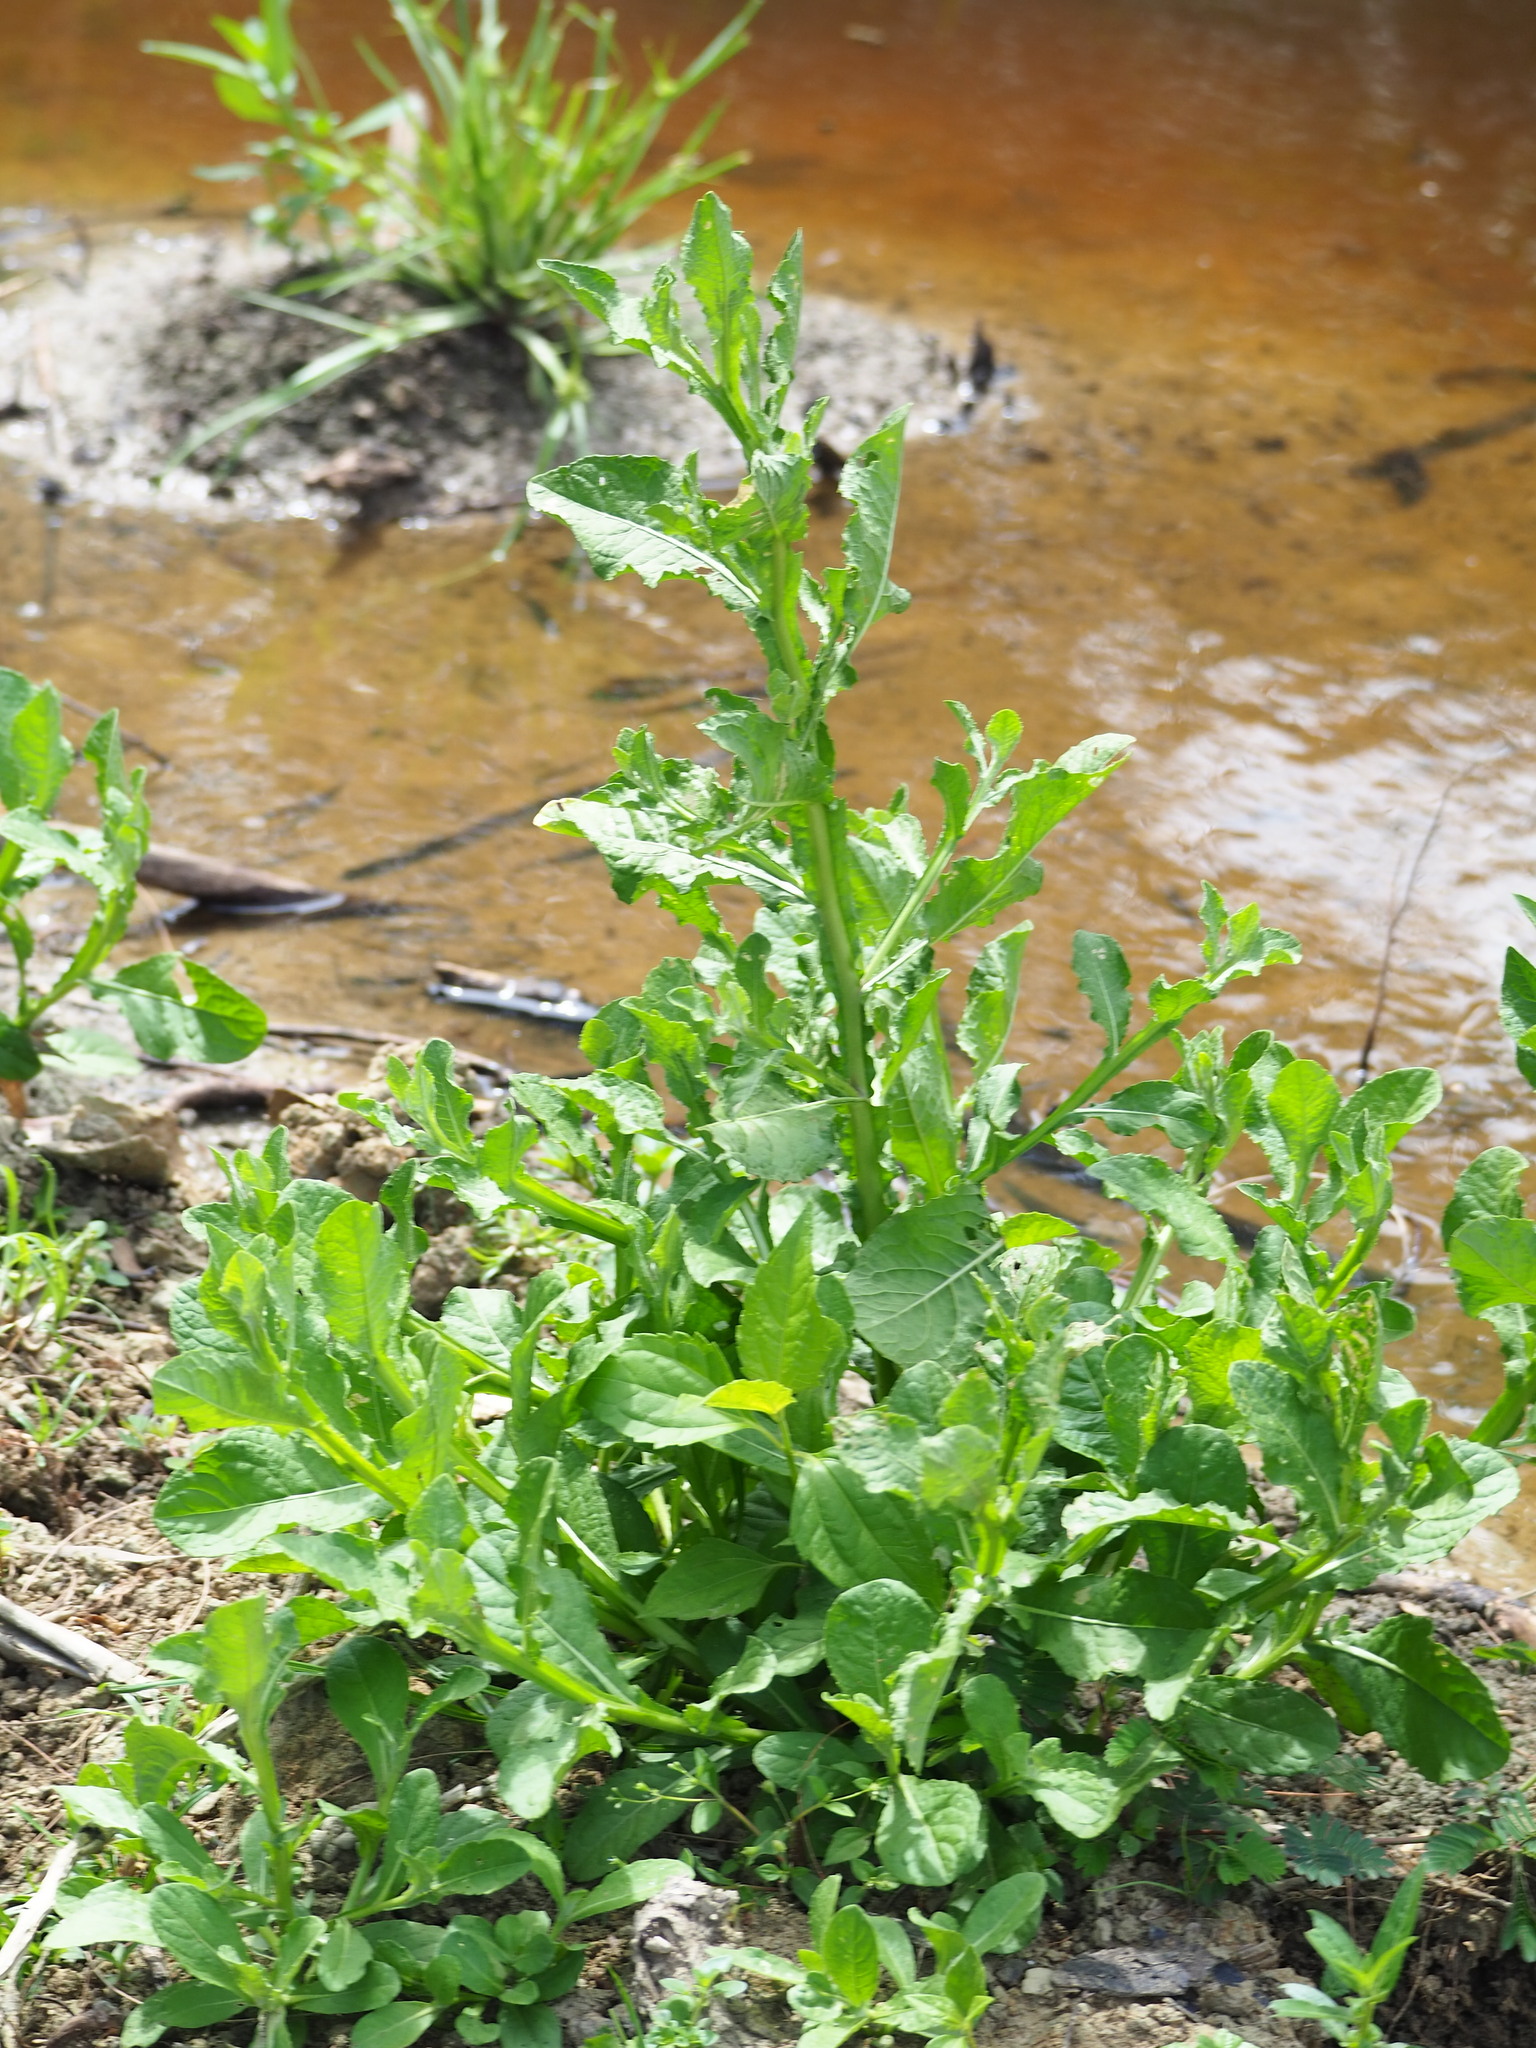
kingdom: Plantae
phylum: Tracheophyta
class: Magnoliopsida
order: Asterales
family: Asteraceae
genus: Pluchea
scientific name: Pluchea sagittalis
